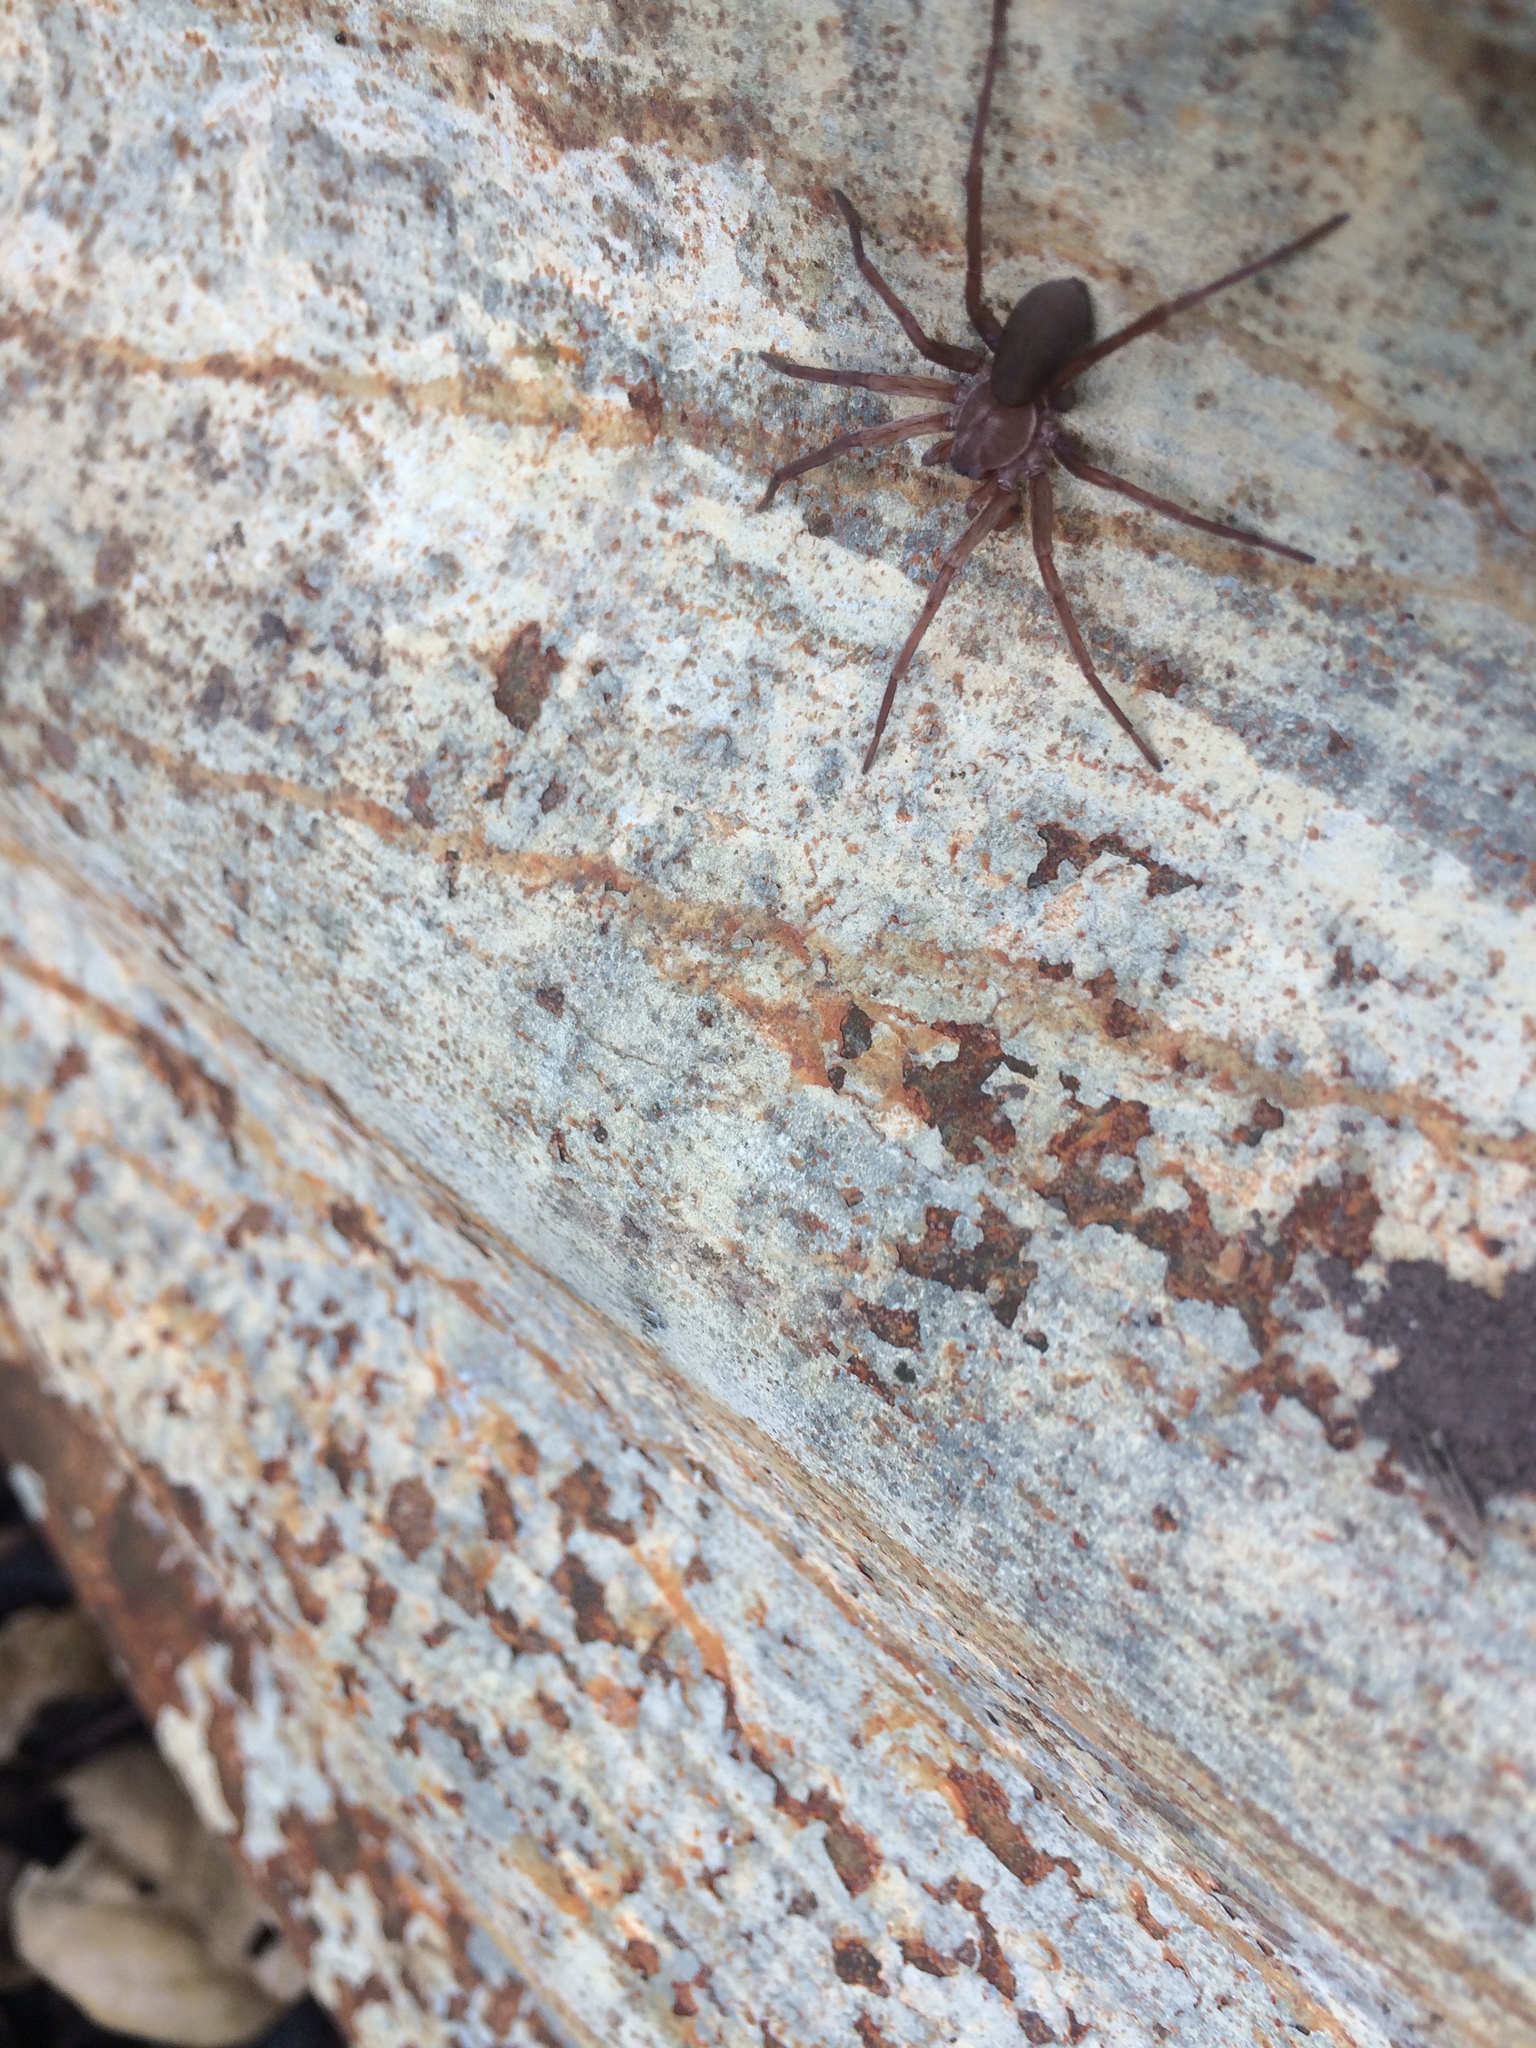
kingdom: Animalia
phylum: Arthropoda
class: Arachnida
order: Araneae
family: Zoropsidae
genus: Titiotus
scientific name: Titiotus
